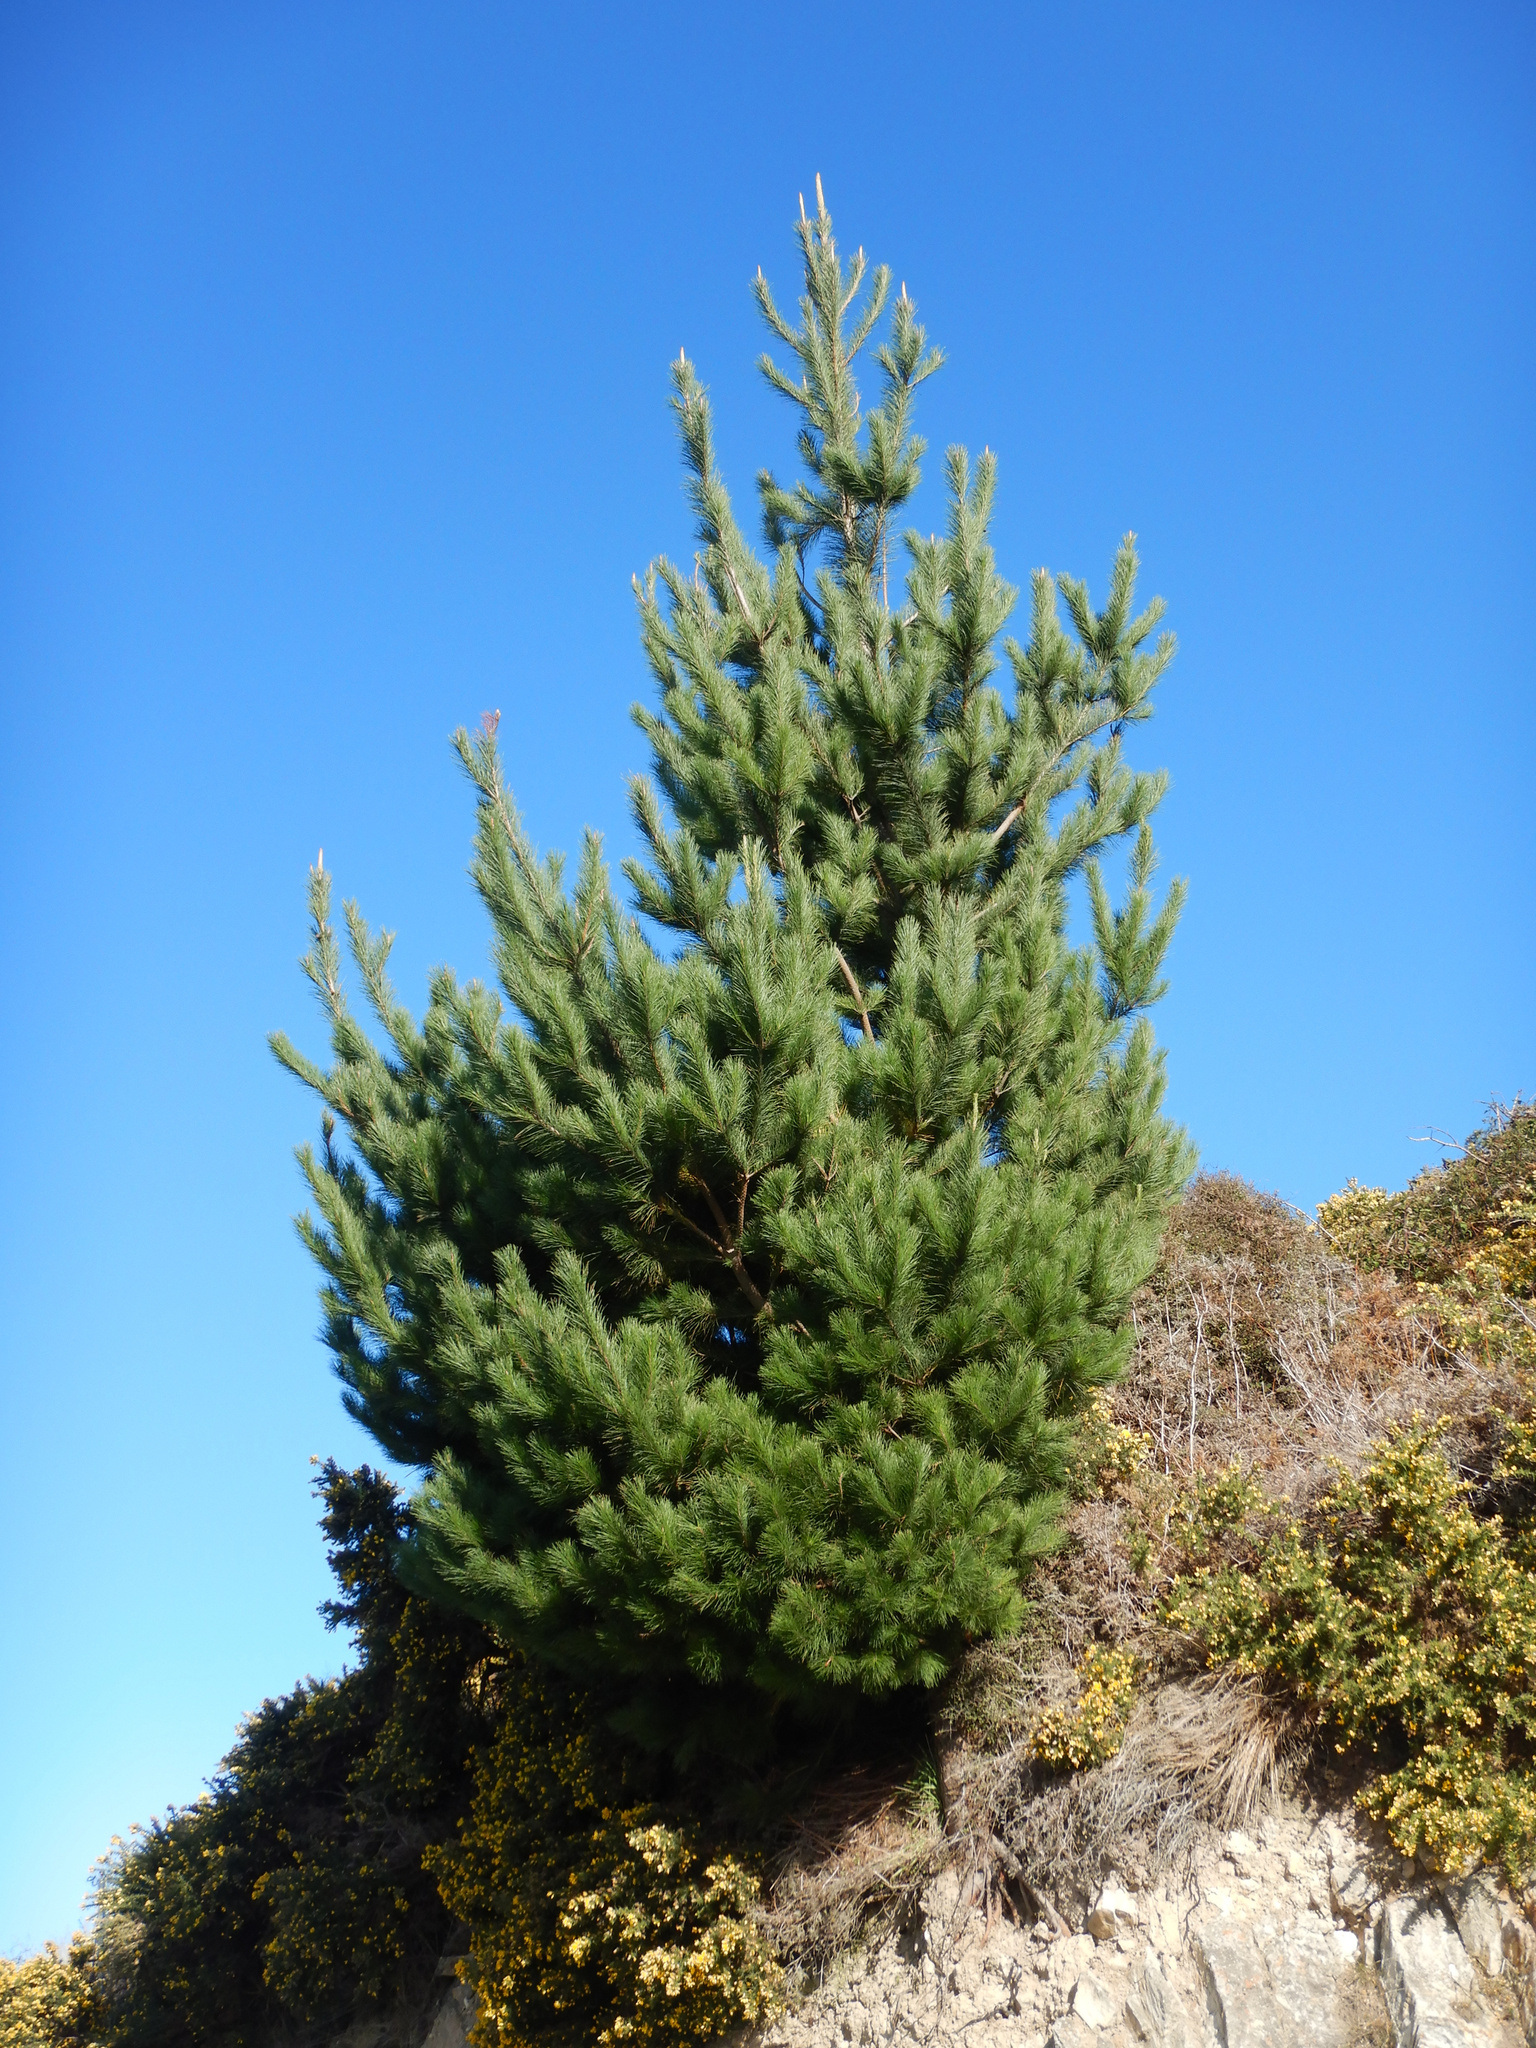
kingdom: Plantae
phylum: Tracheophyta
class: Pinopsida
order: Pinales
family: Pinaceae
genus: Pinus
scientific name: Pinus radiata
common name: Monterey pine
